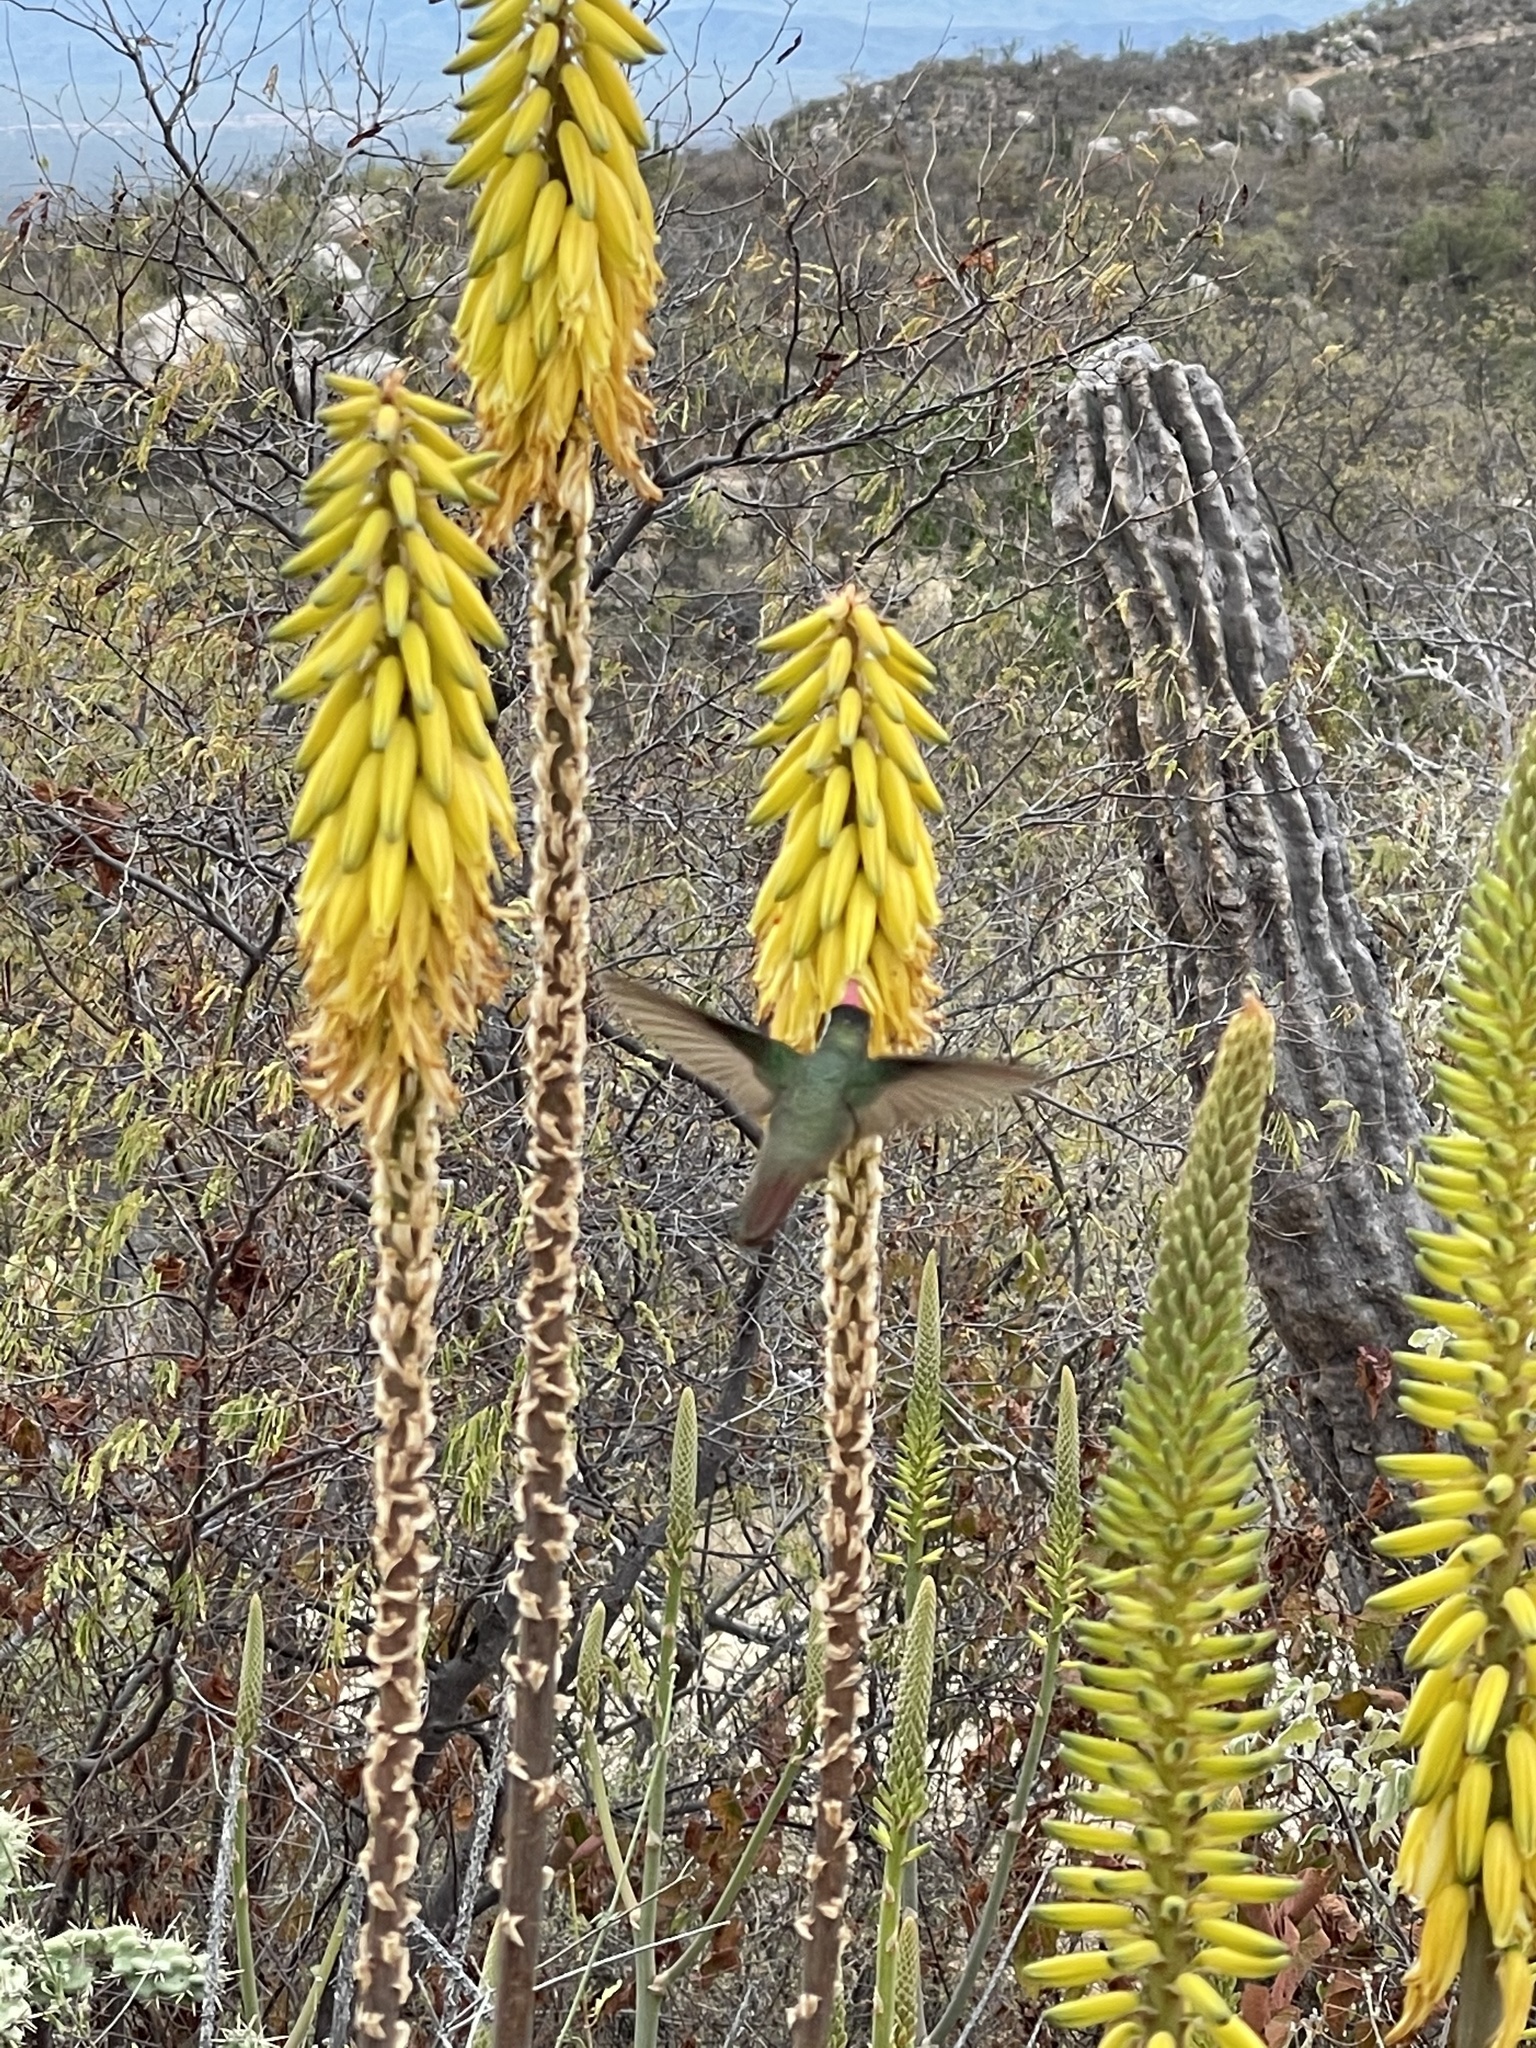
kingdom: Animalia
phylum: Chordata
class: Aves
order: Apodiformes
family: Trochilidae
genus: Basilinna
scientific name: Basilinna xantusii
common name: Xantus's hummingbird
